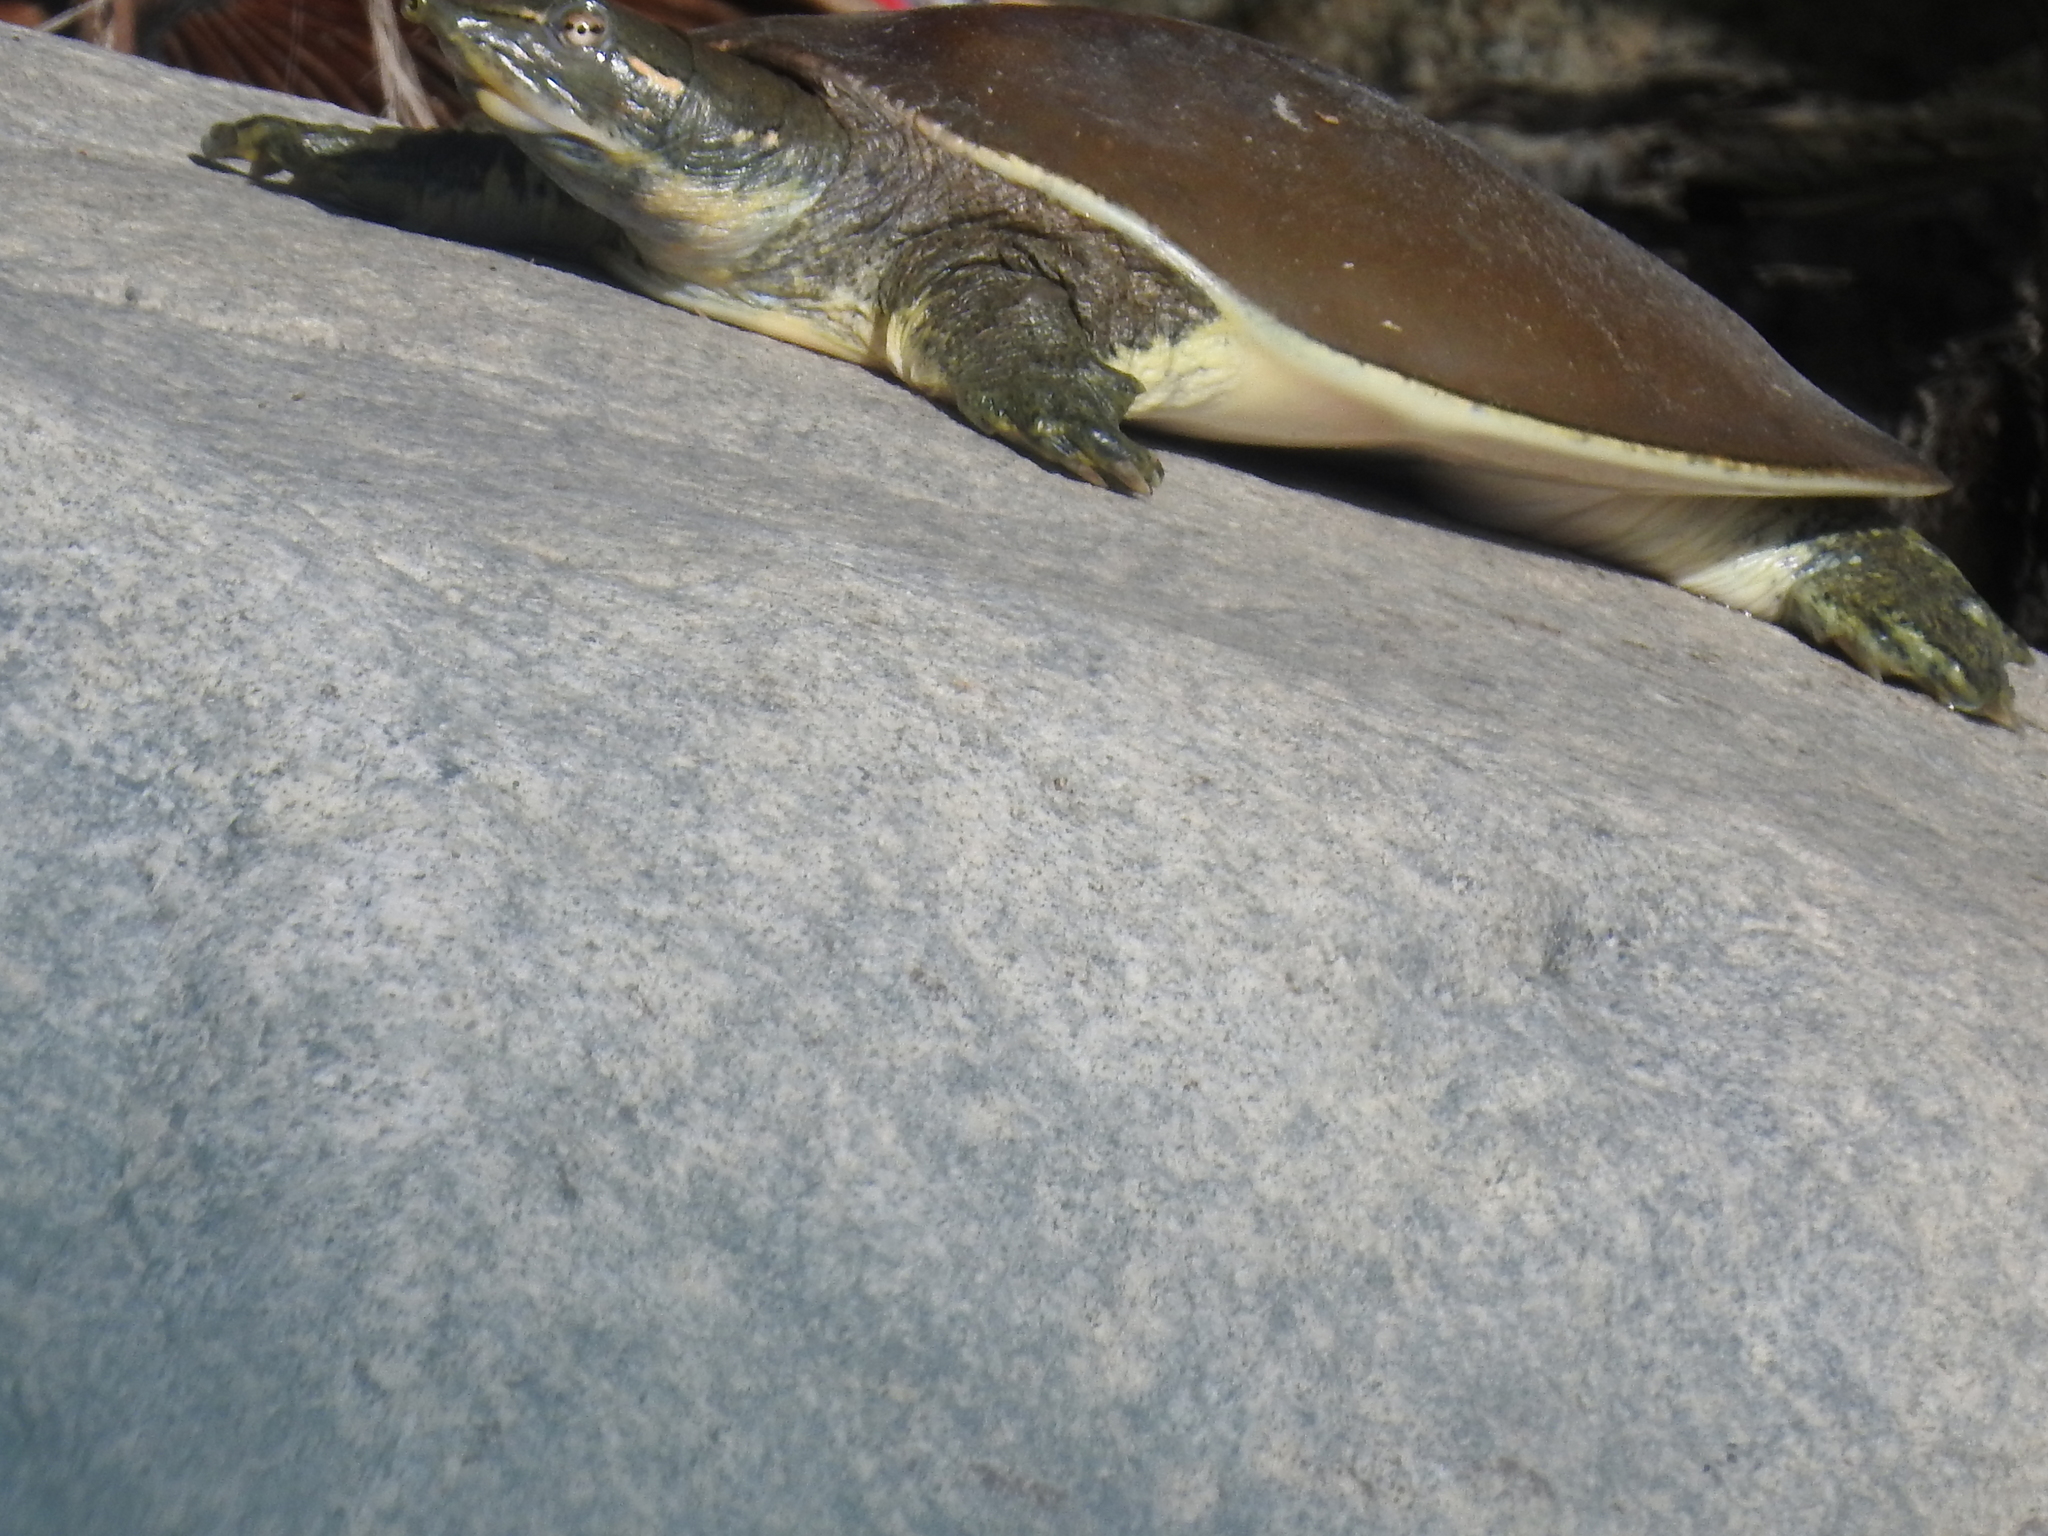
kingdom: Animalia
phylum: Chordata
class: Testudines
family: Trionychidae
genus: Apalone
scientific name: Apalone spinifera
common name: Spiny softshell turtle
